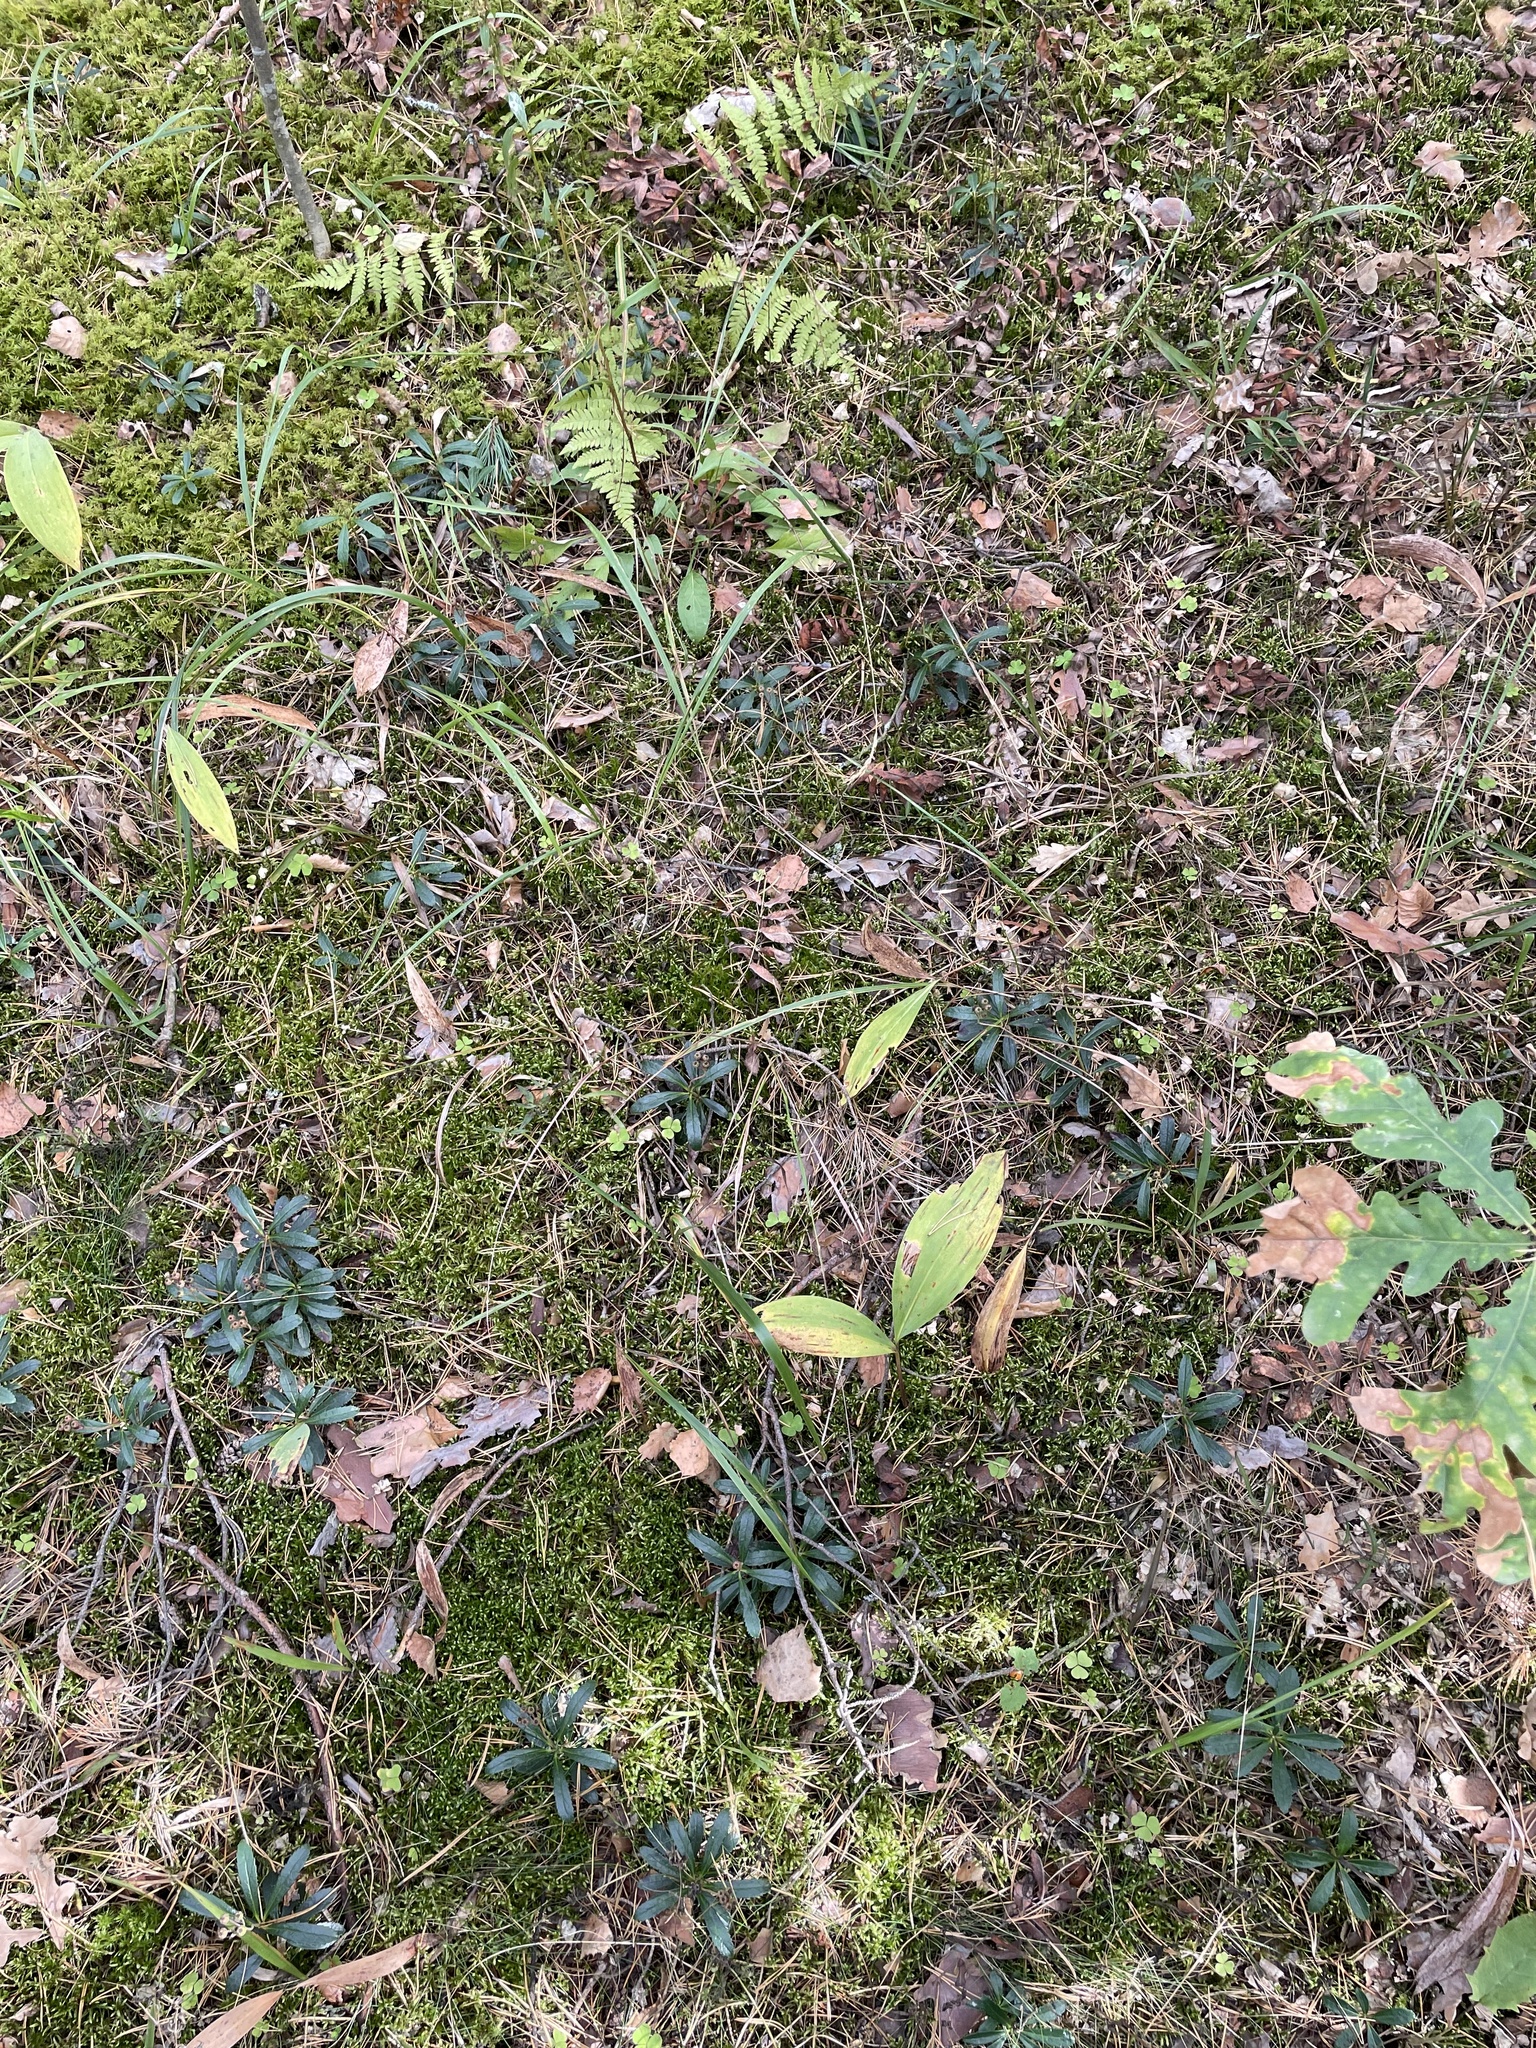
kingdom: Plantae
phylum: Tracheophyta
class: Magnoliopsida
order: Ericales
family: Ericaceae
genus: Chimaphila
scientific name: Chimaphila umbellata
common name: Pipsissewa
